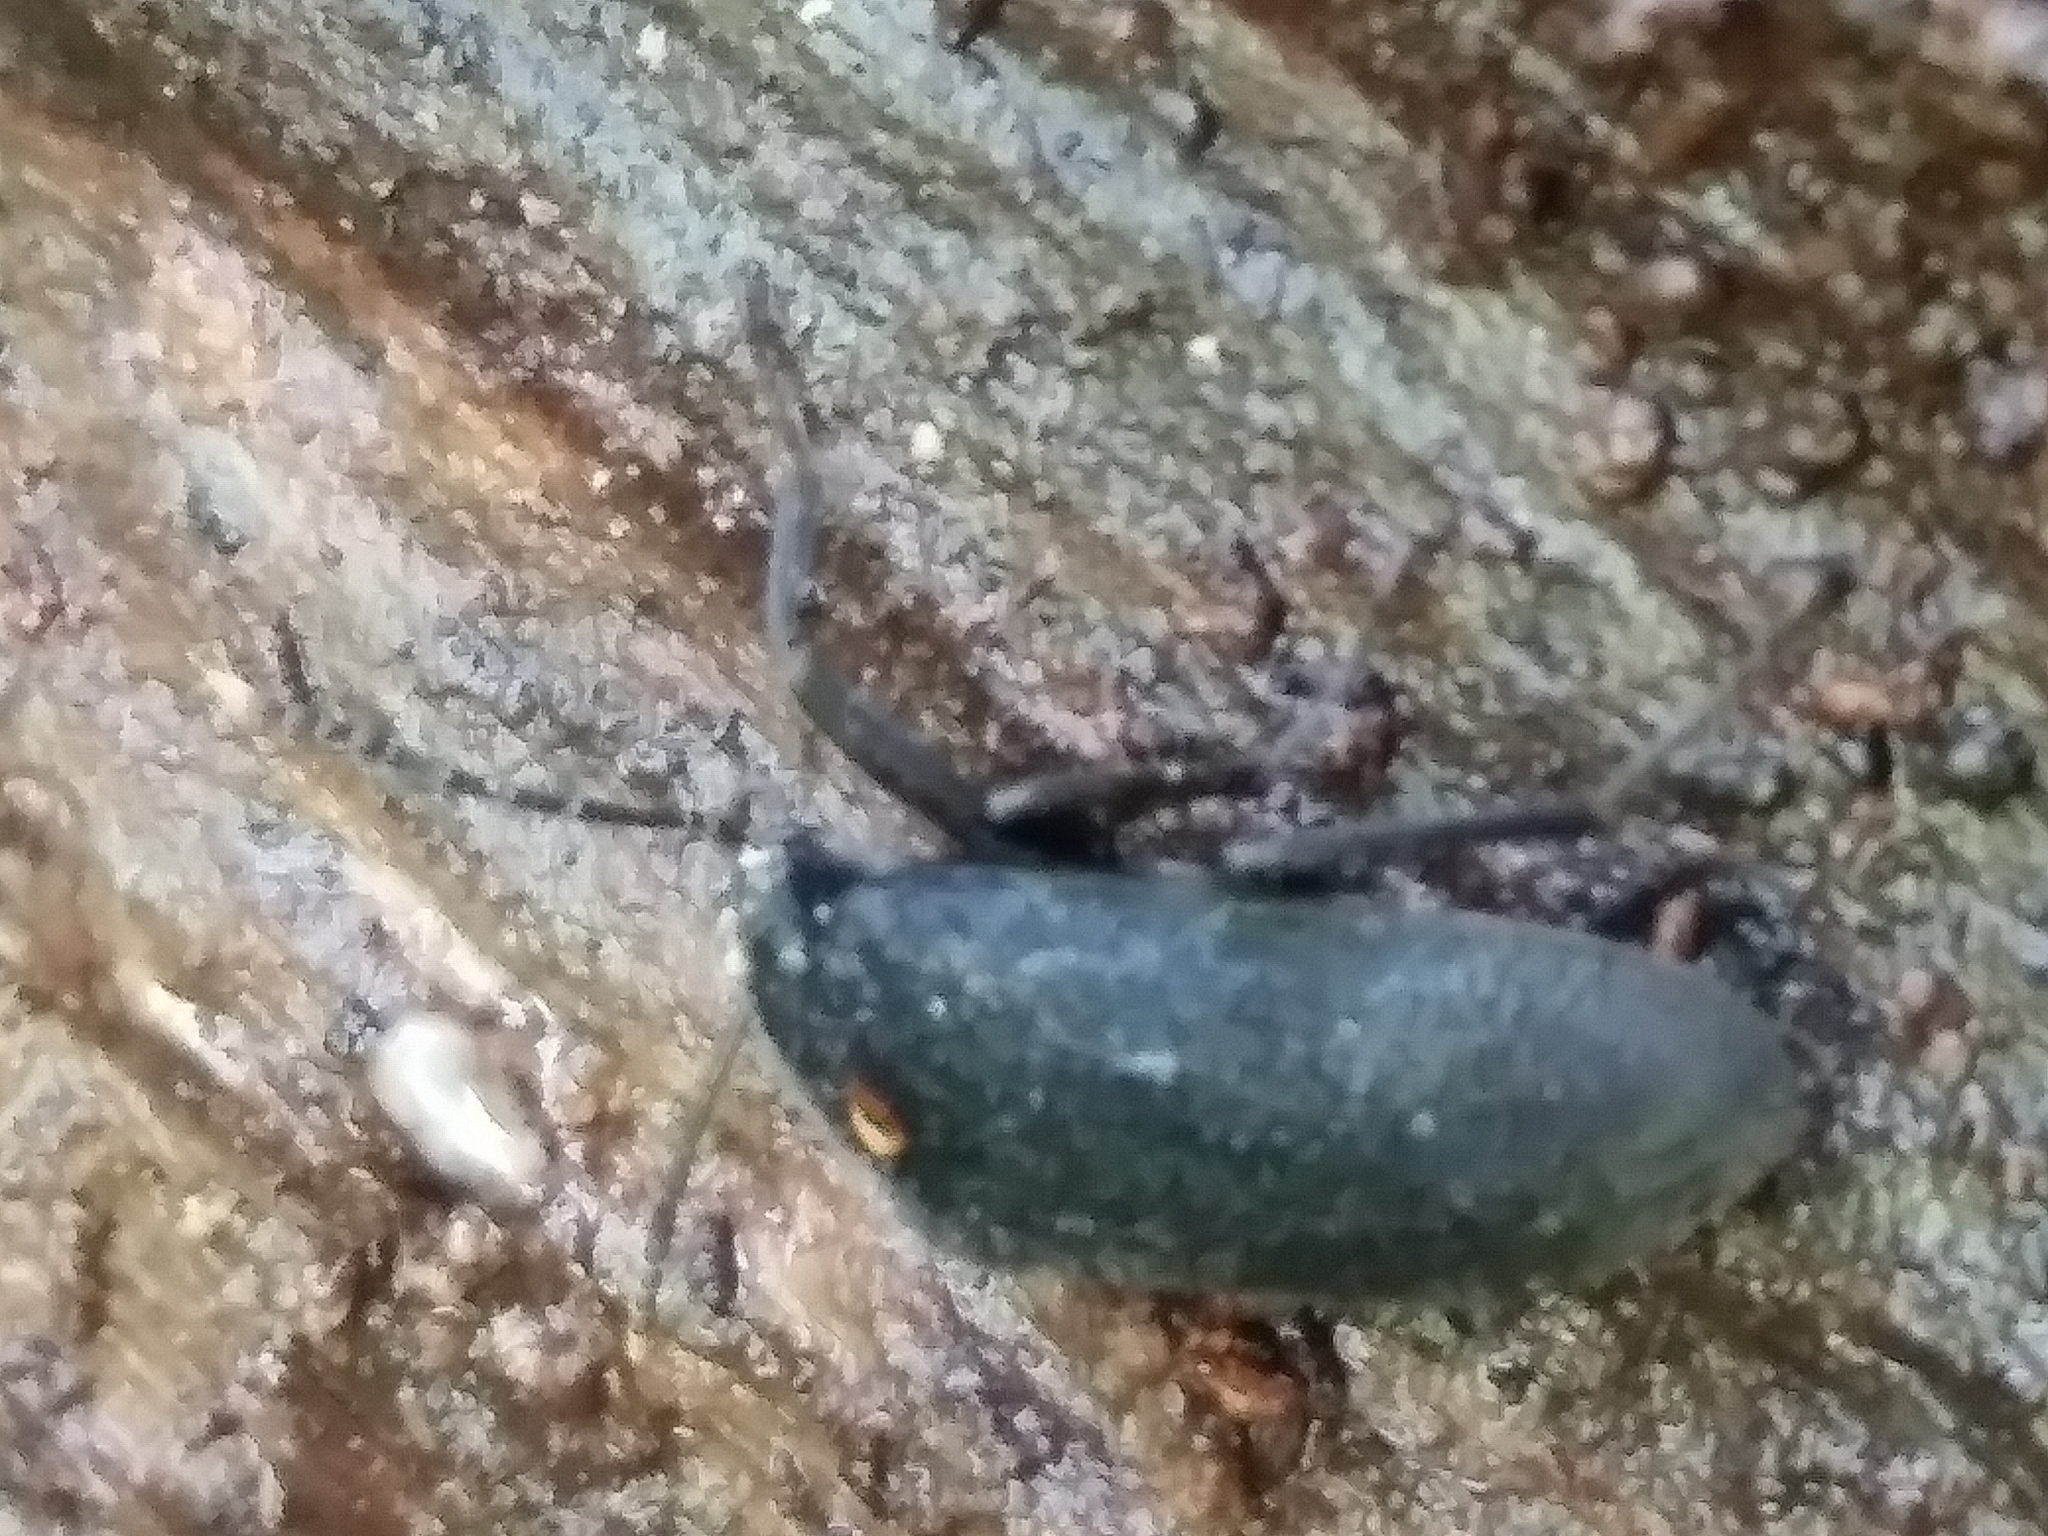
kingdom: Animalia
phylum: Arthropoda
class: Insecta
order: Coleoptera
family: Tetratomidae
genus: Penthe
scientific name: Penthe obliquata
